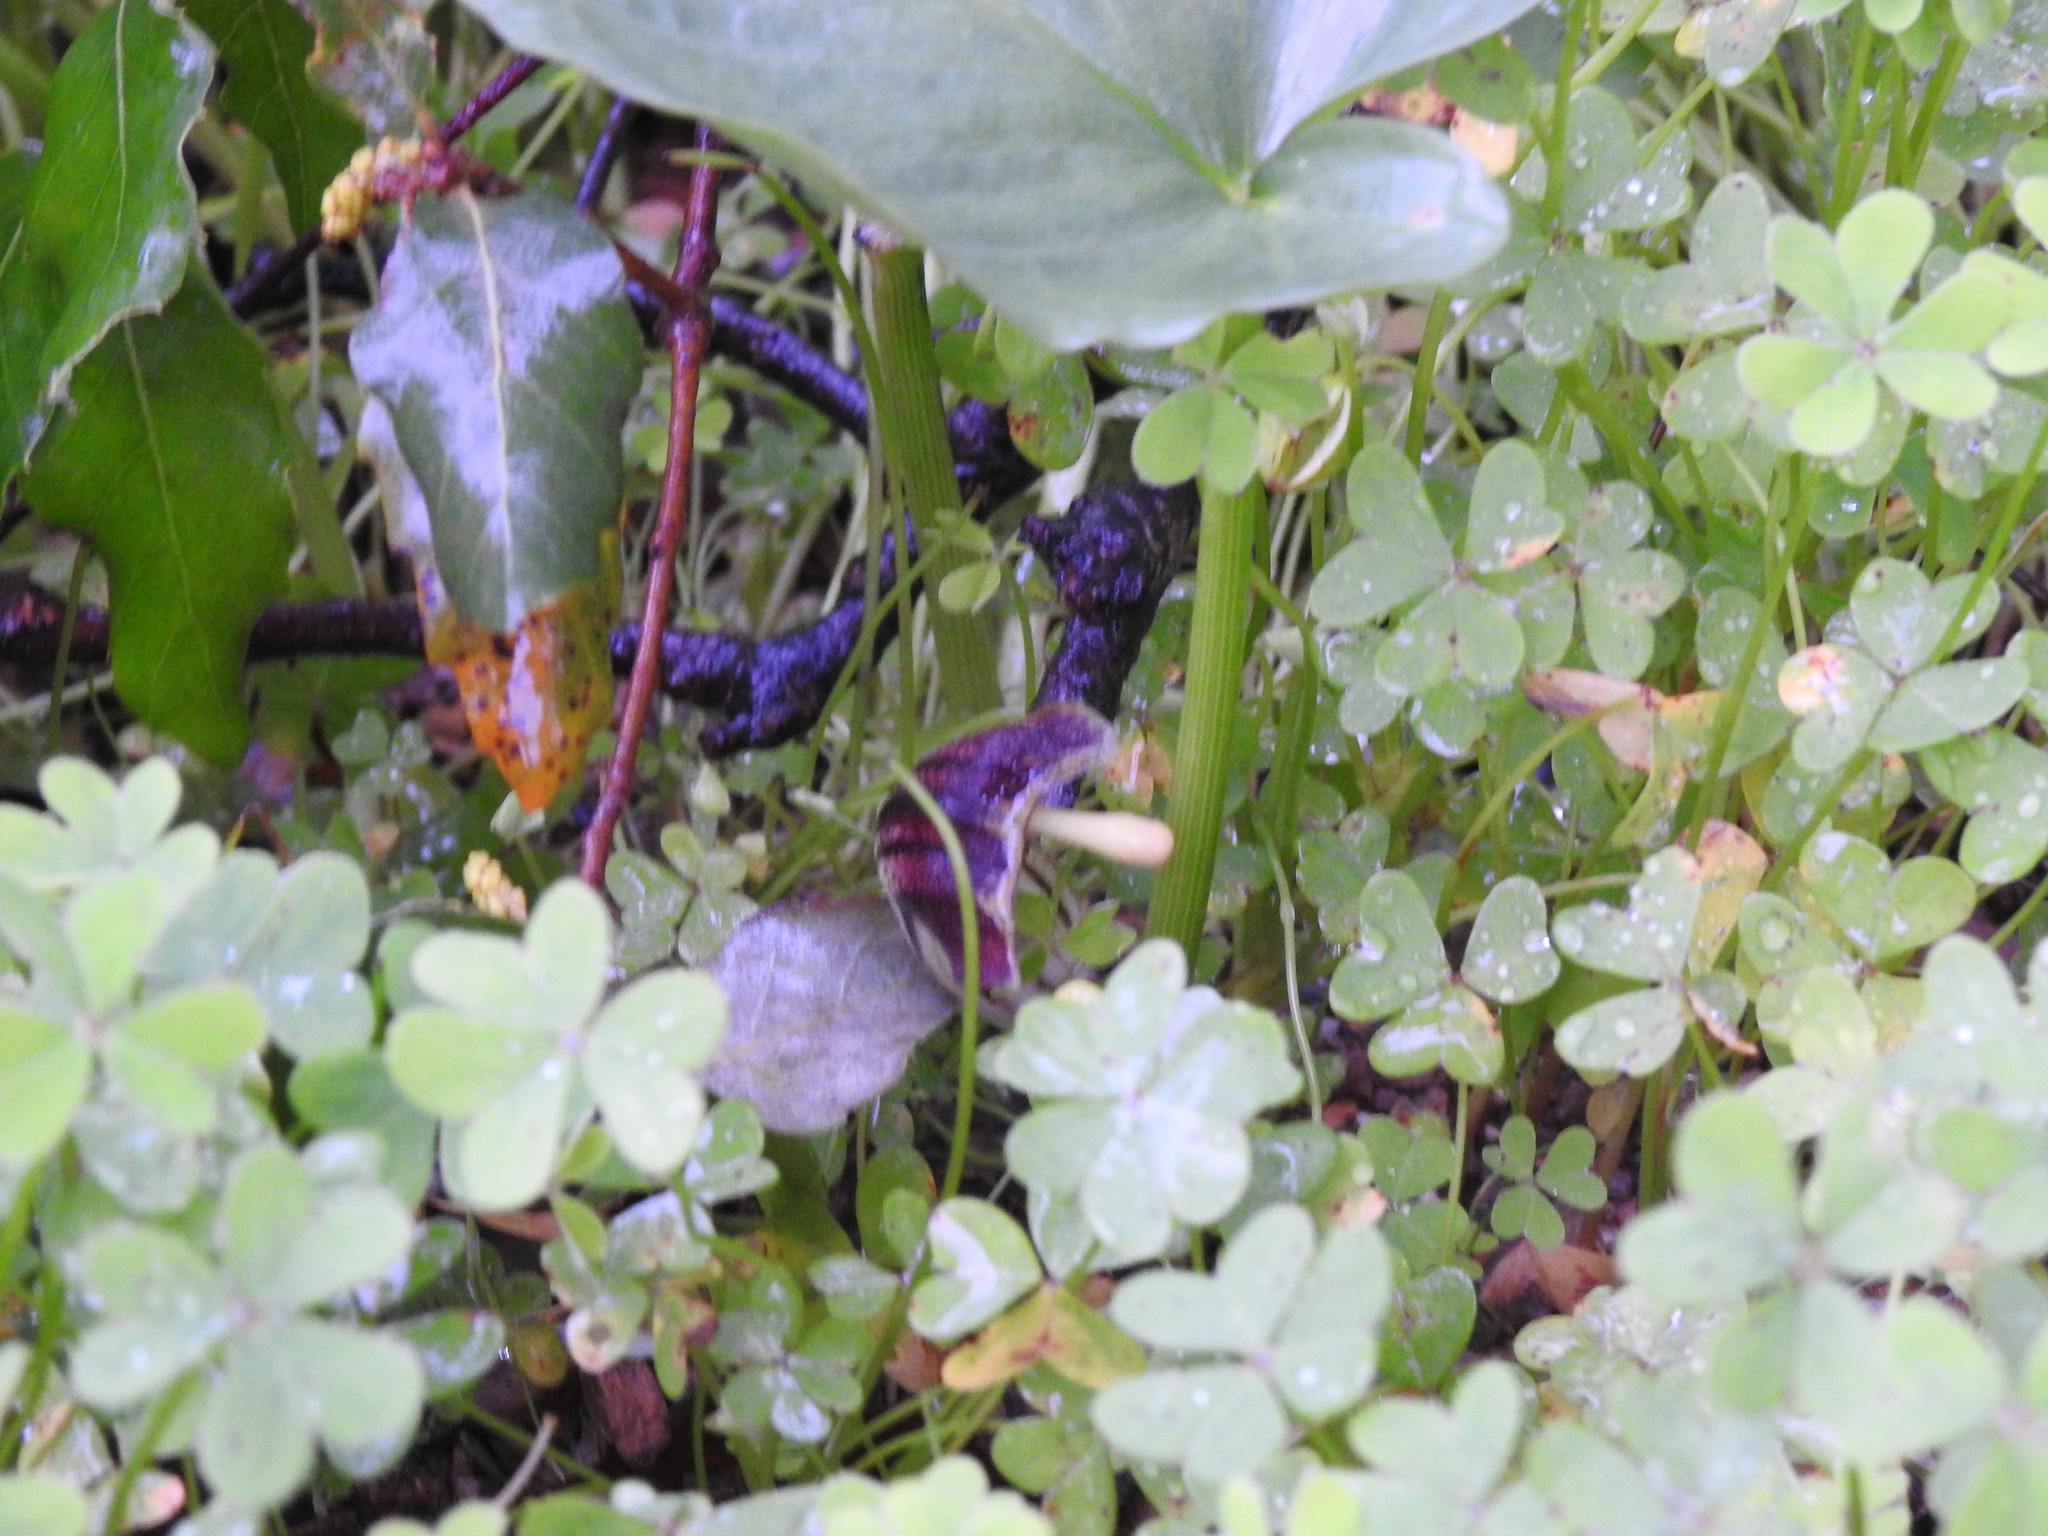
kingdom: Plantae
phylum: Tracheophyta
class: Liliopsida
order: Alismatales
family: Araceae
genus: Arisarum
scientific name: Arisarum simorrhinum
